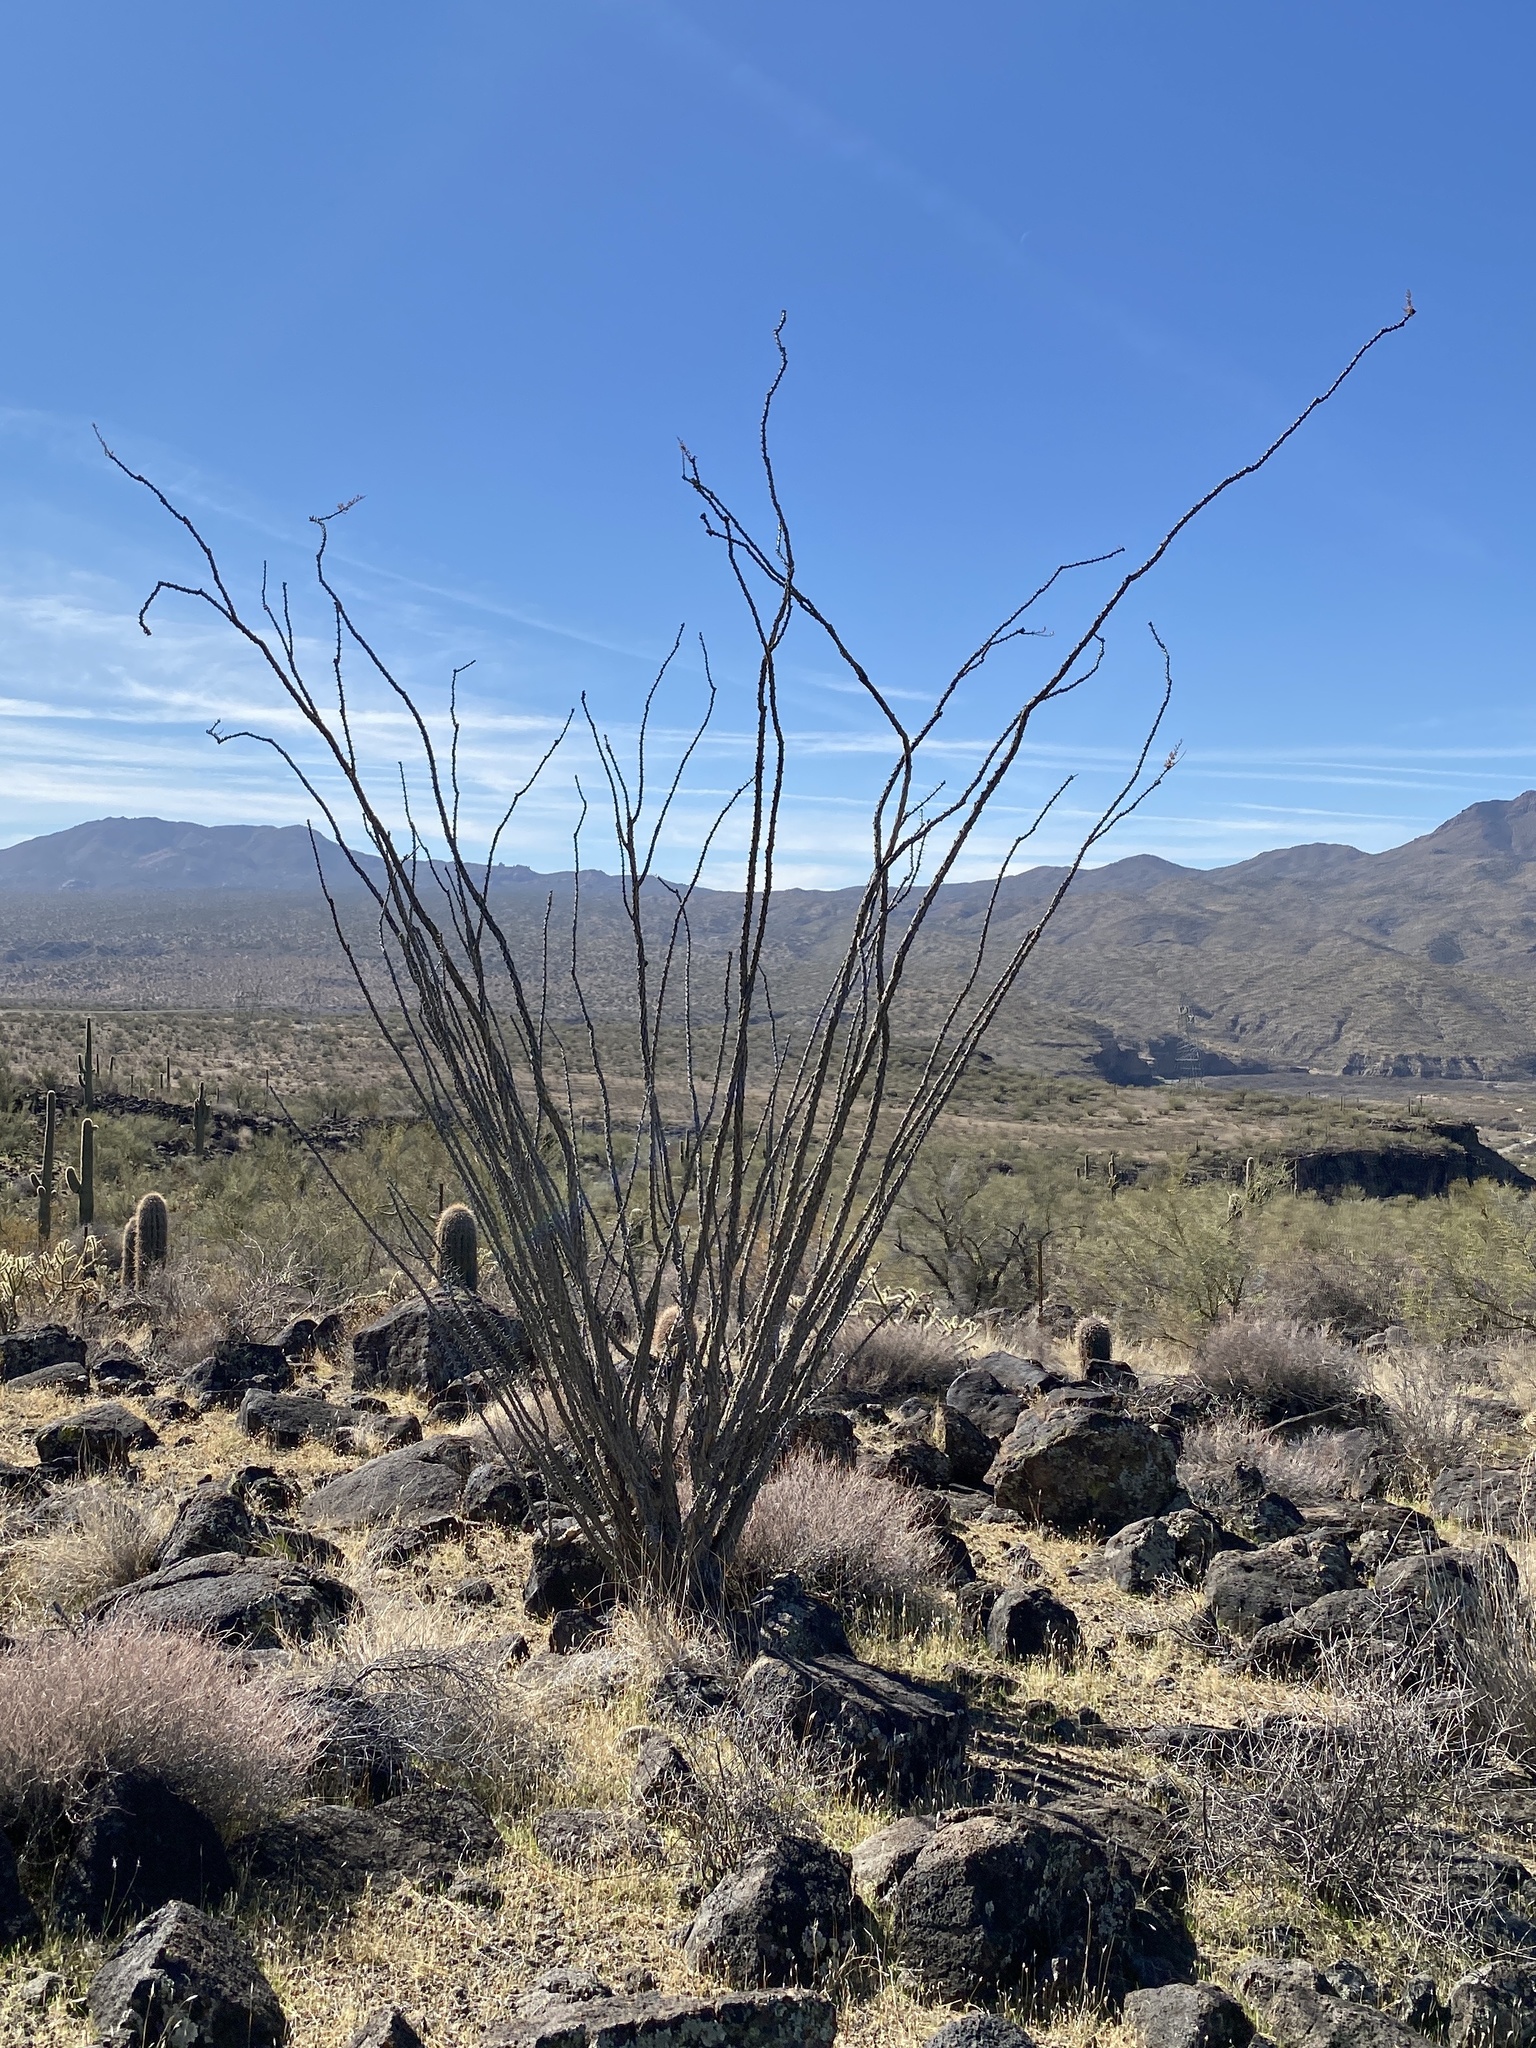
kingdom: Plantae
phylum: Tracheophyta
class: Magnoliopsida
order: Ericales
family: Fouquieriaceae
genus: Fouquieria
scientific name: Fouquieria splendens
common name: Vine-cactus
